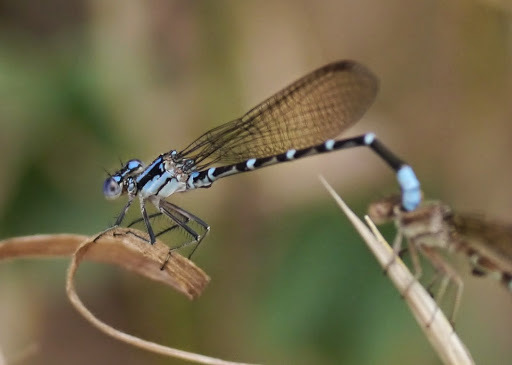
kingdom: Animalia
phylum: Arthropoda
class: Insecta
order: Odonata
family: Coenagrionidae
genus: Argia
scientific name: Argia sedula
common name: Blue-ringed dancer
